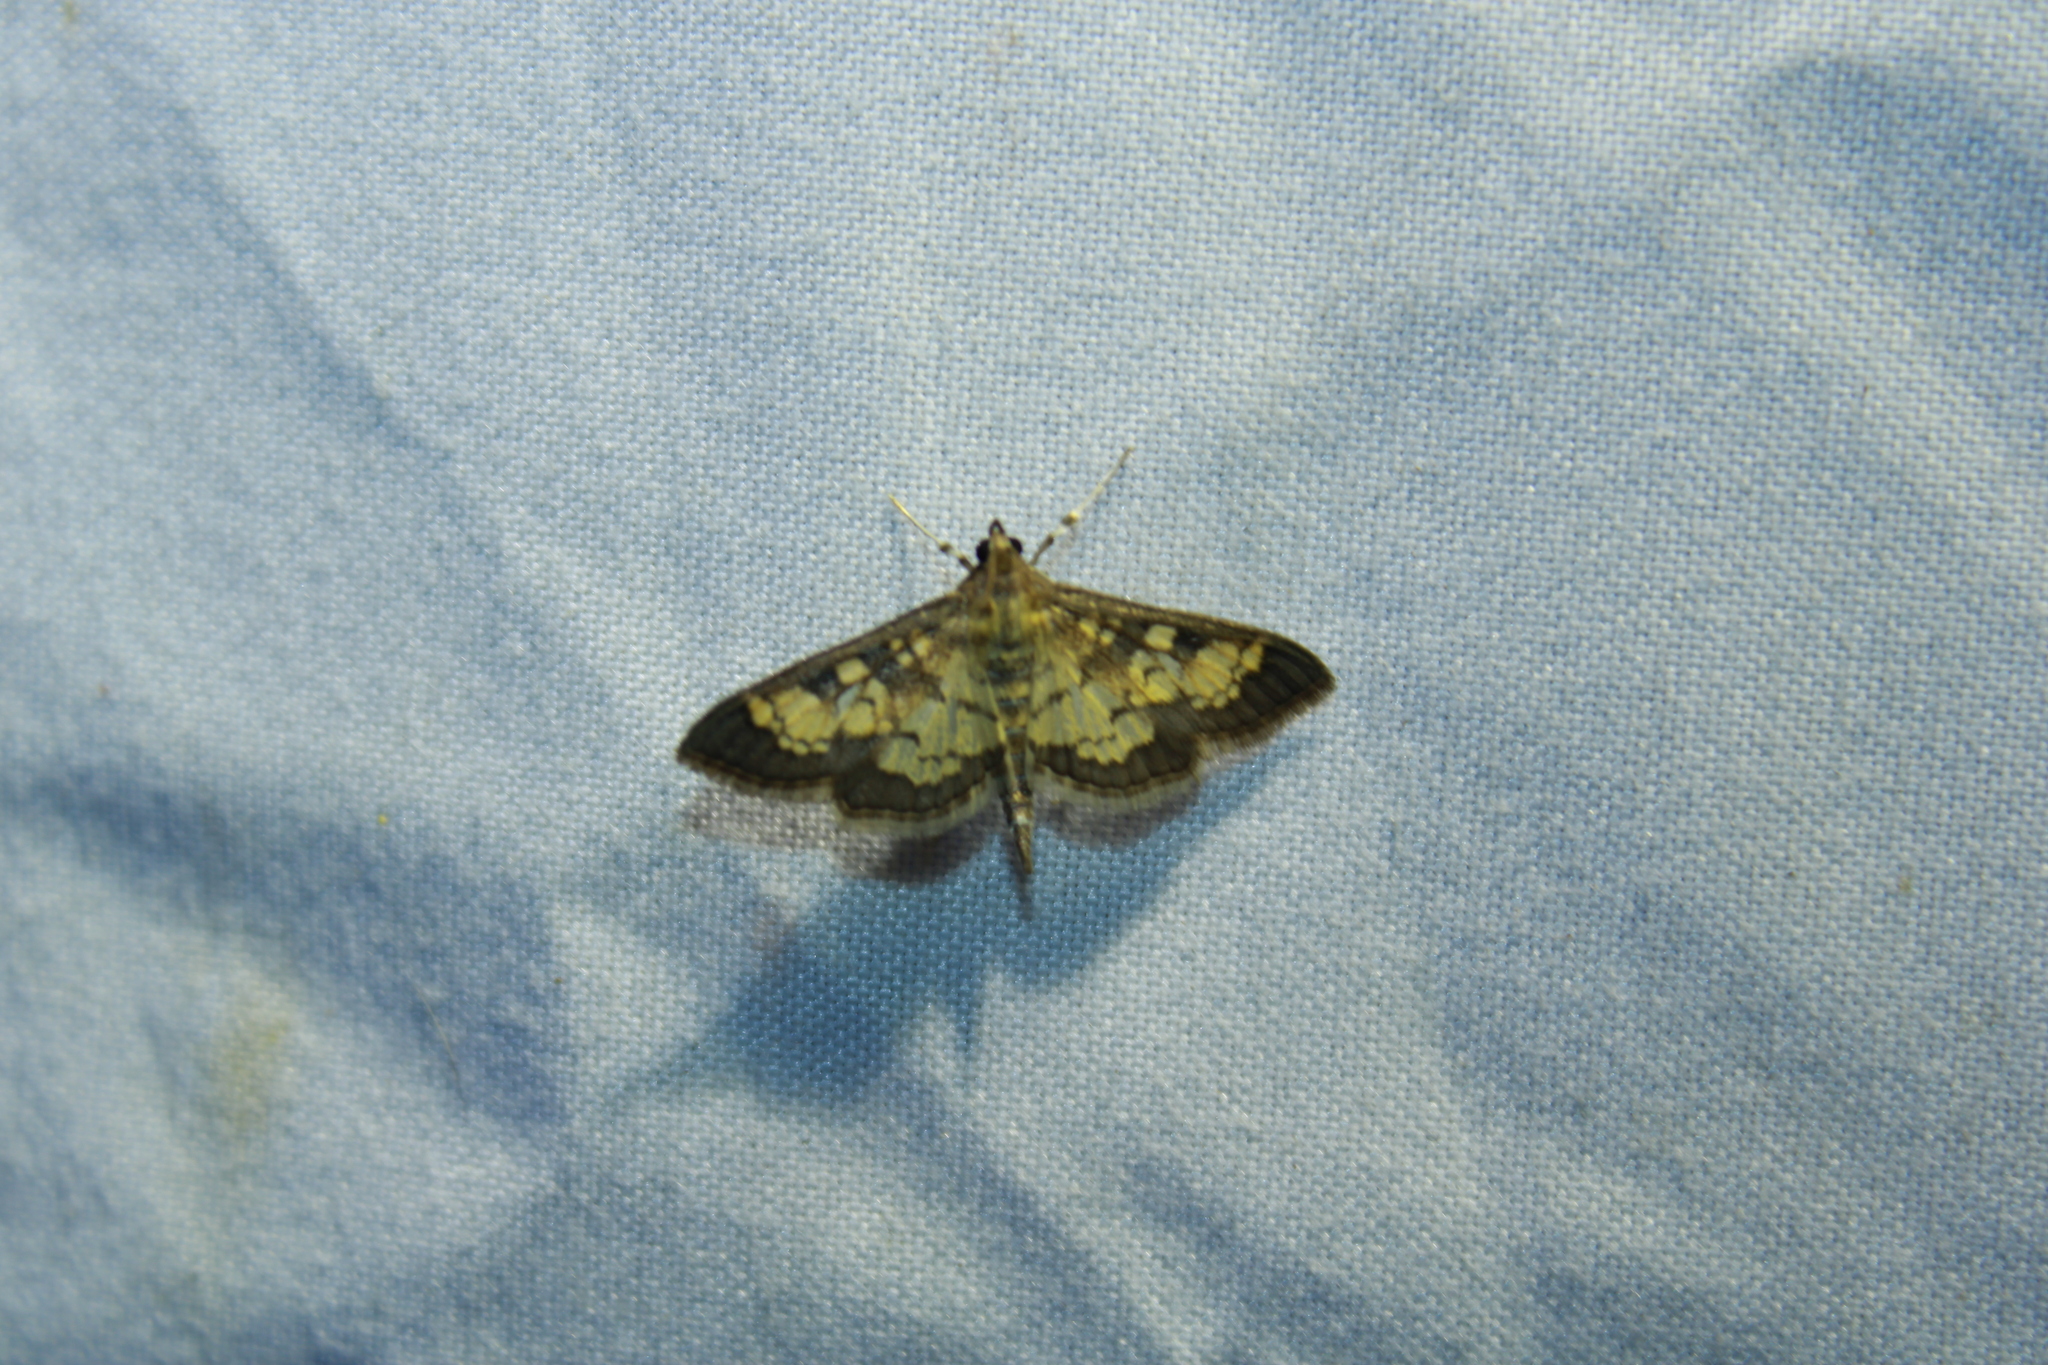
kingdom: Animalia
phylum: Arthropoda
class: Insecta
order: Lepidoptera
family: Crambidae
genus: Epipagis
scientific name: Epipagis adipaloides
